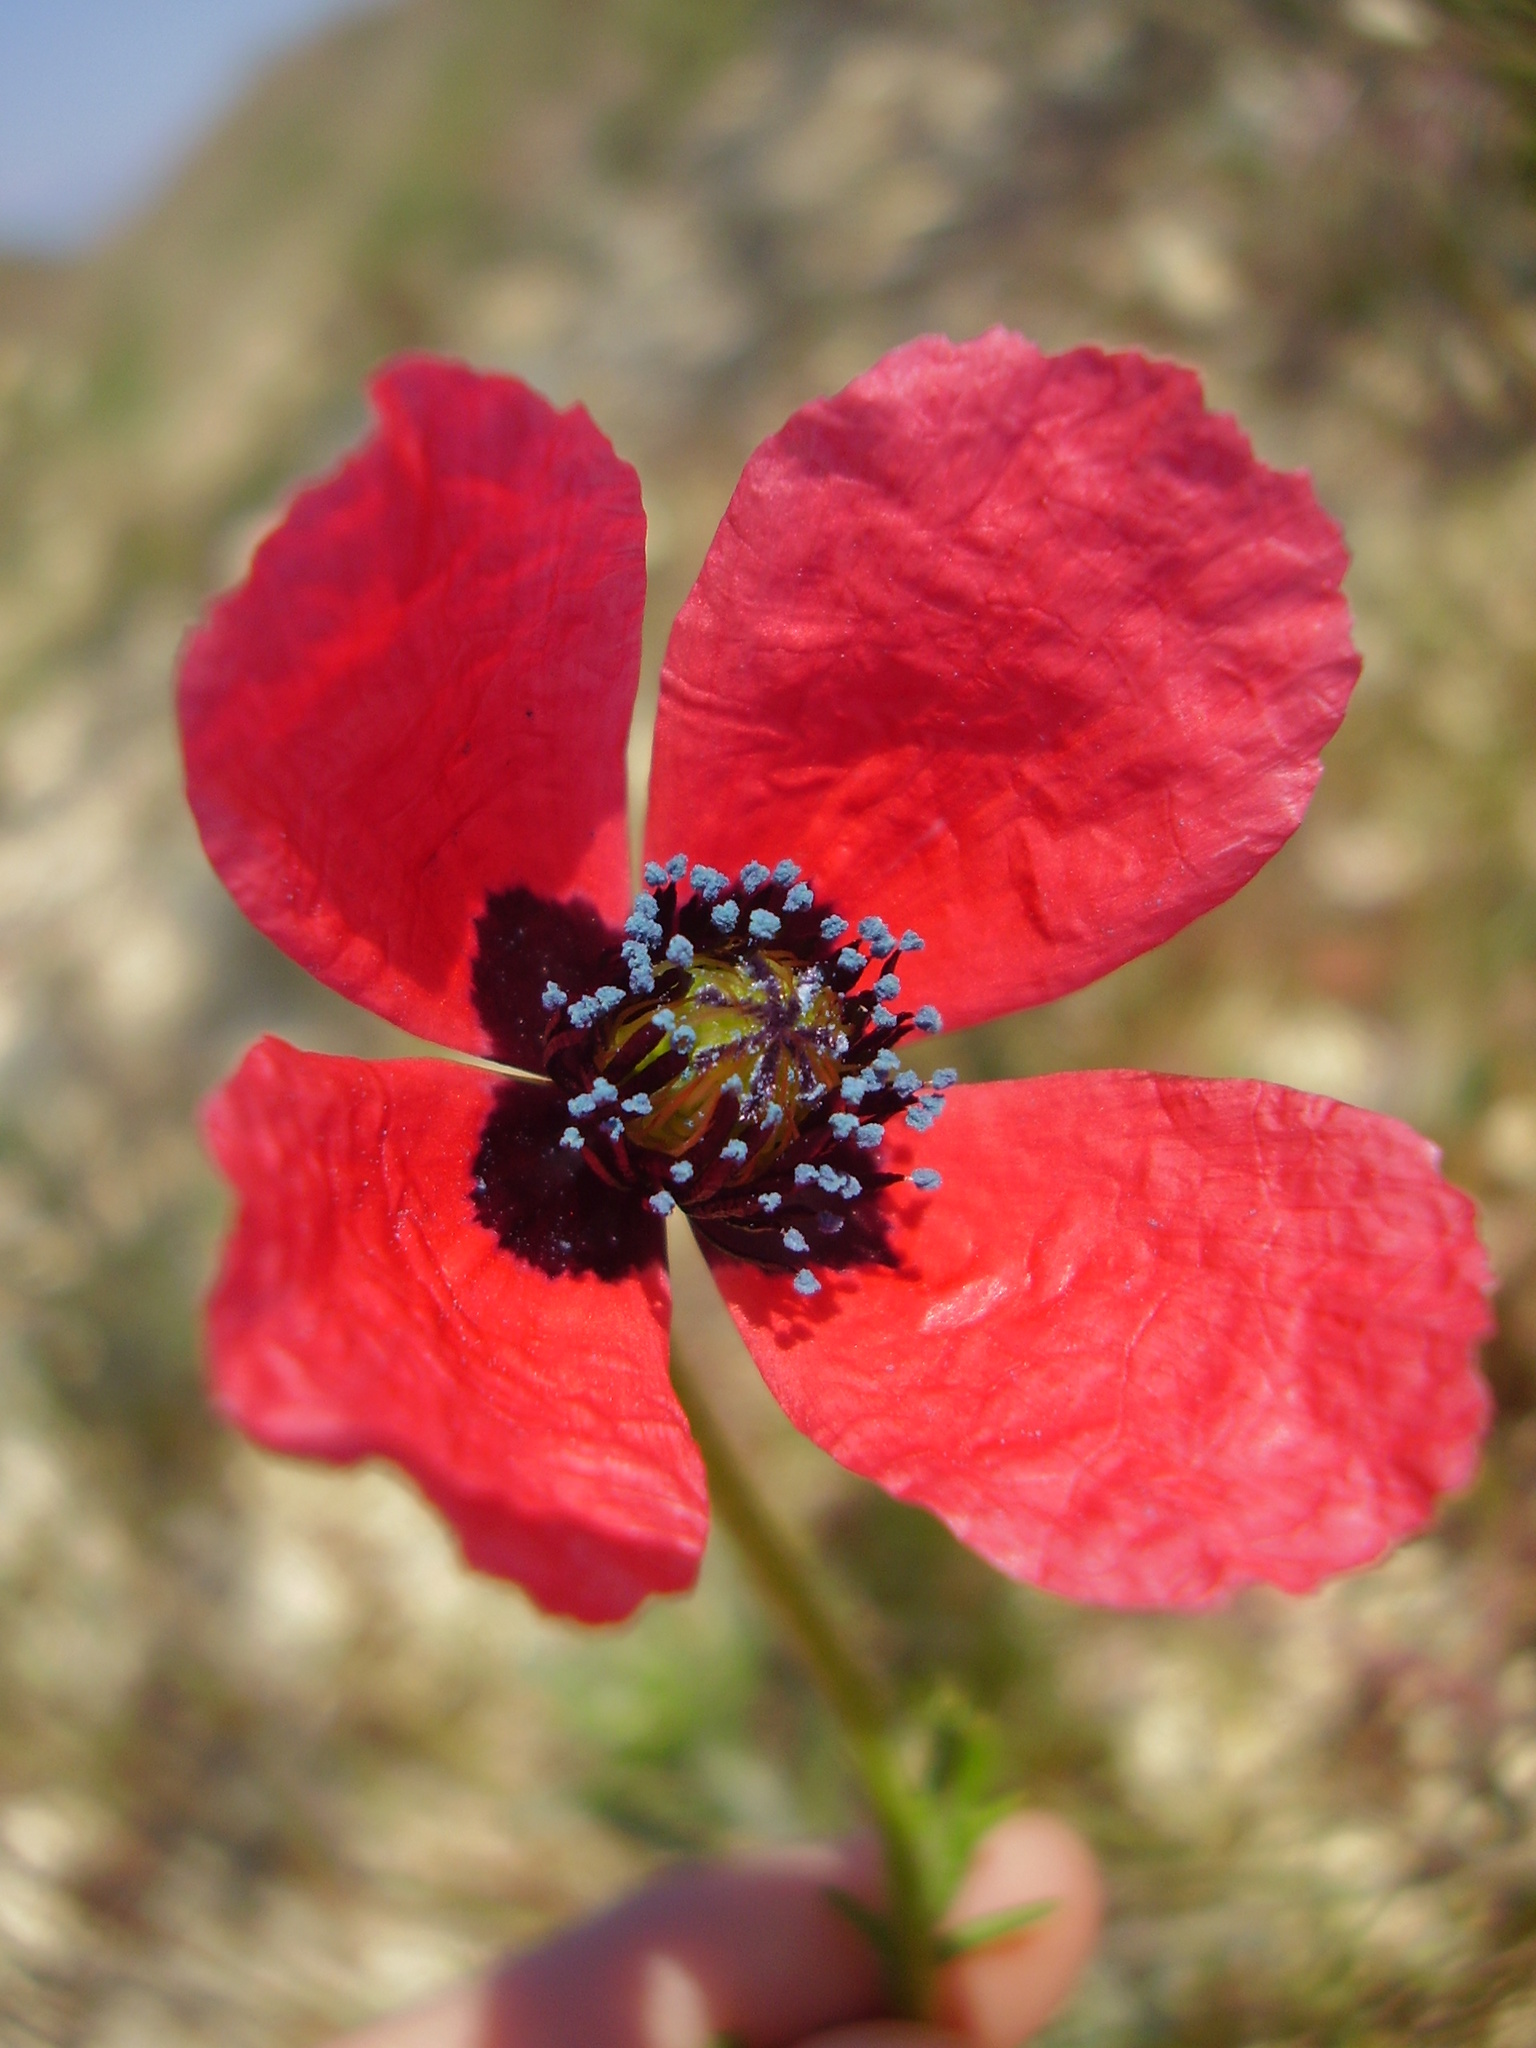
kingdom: Plantae
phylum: Tracheophyta
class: Magnoliopsida
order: Ranunculales
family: Papaveraceae
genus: Papaver
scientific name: Papaver dubium
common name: Long-headed poppy
